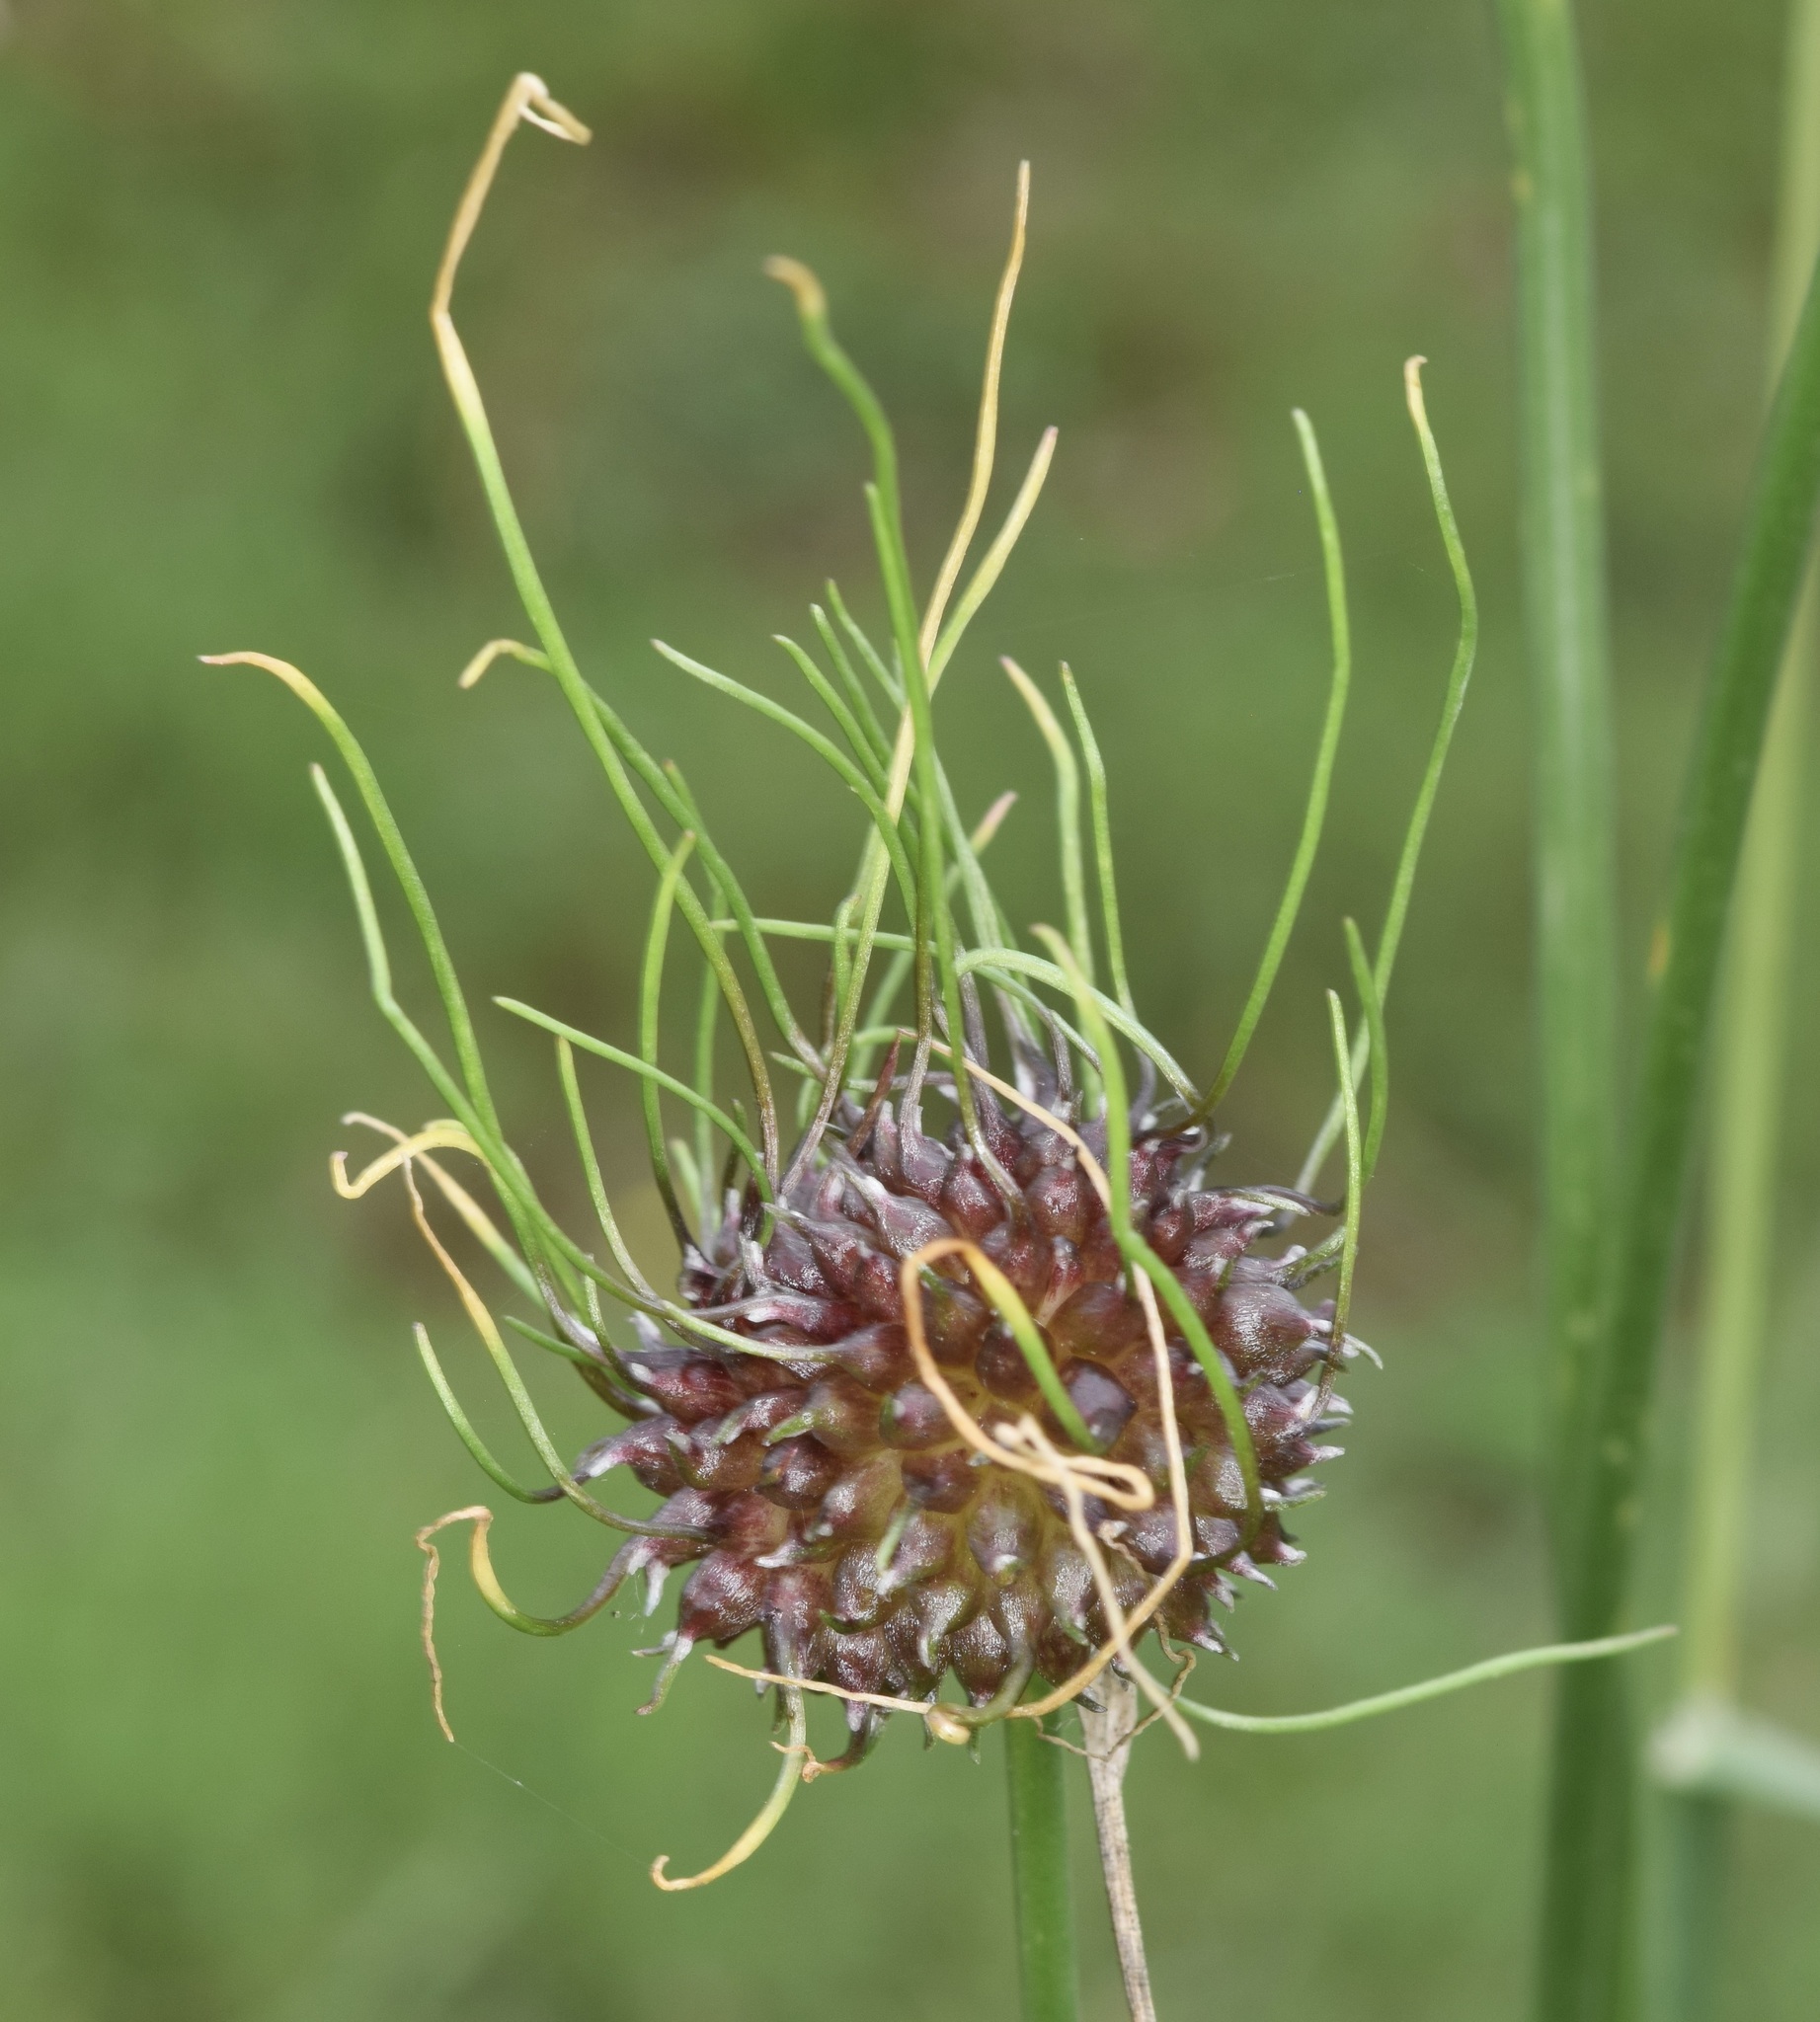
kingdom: Plantae
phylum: Tracheophyta
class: Liliopsida
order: Asparagales
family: Amaryllidaceae
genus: Allium
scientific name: Allium vineale
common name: Crow garlic
